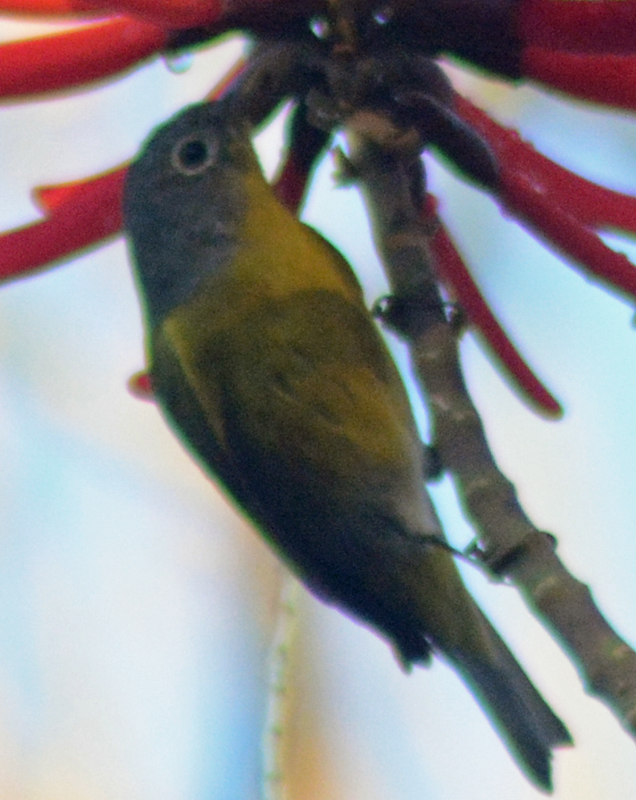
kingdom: Animalia
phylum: Chordata
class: Aves
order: Passeriformes
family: Parulidae
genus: Leiothlypis
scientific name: Leiothlypis ruficapilla
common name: Nashville warbler
